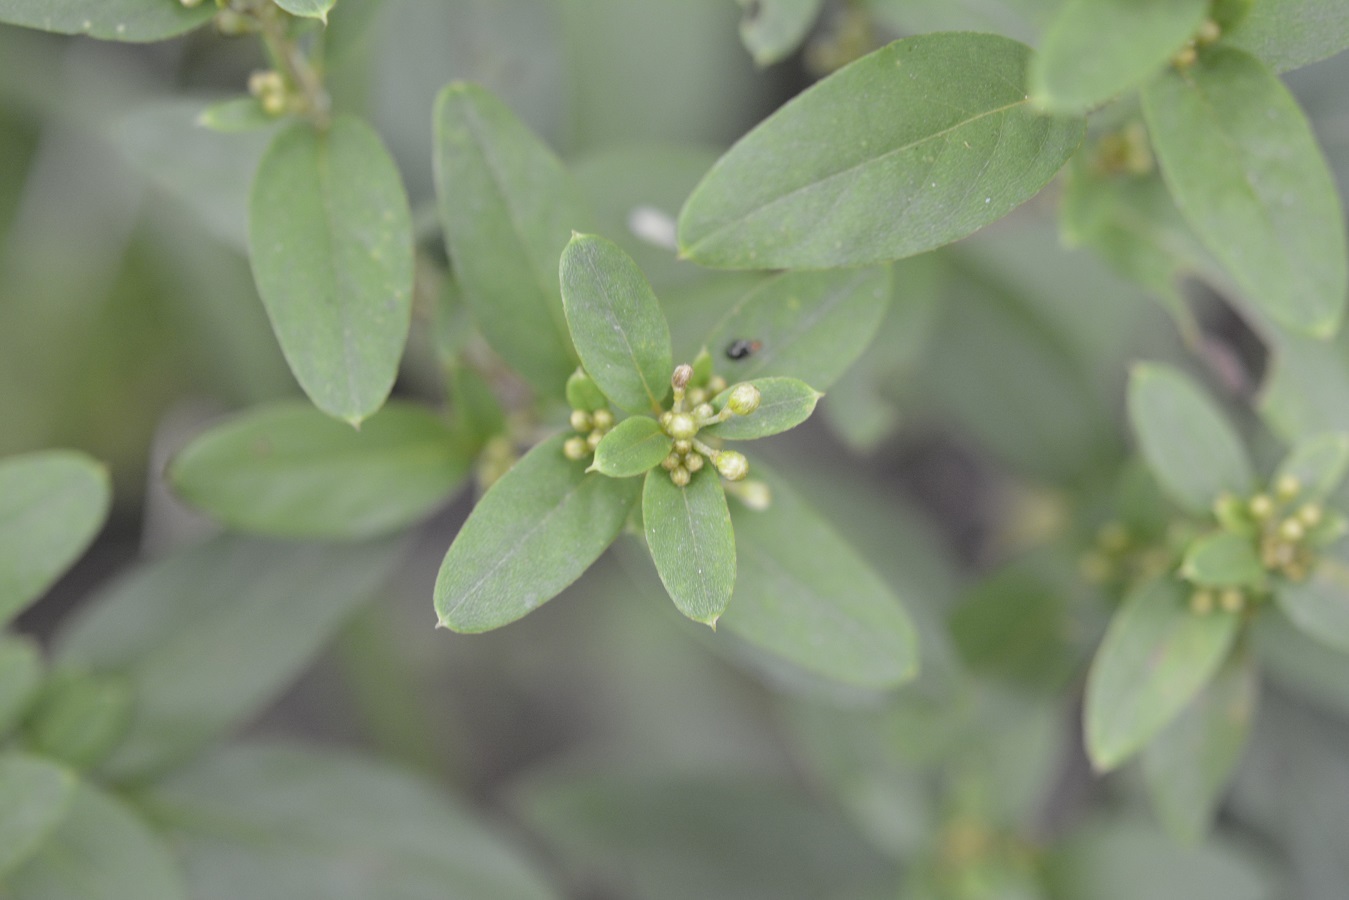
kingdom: Plantae
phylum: Tracheophyta
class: Magnoliopsida
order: Malpighiales
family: Malpighiaceae
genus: Gaudichaudia
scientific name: Gaudichaudia cynanchoides
